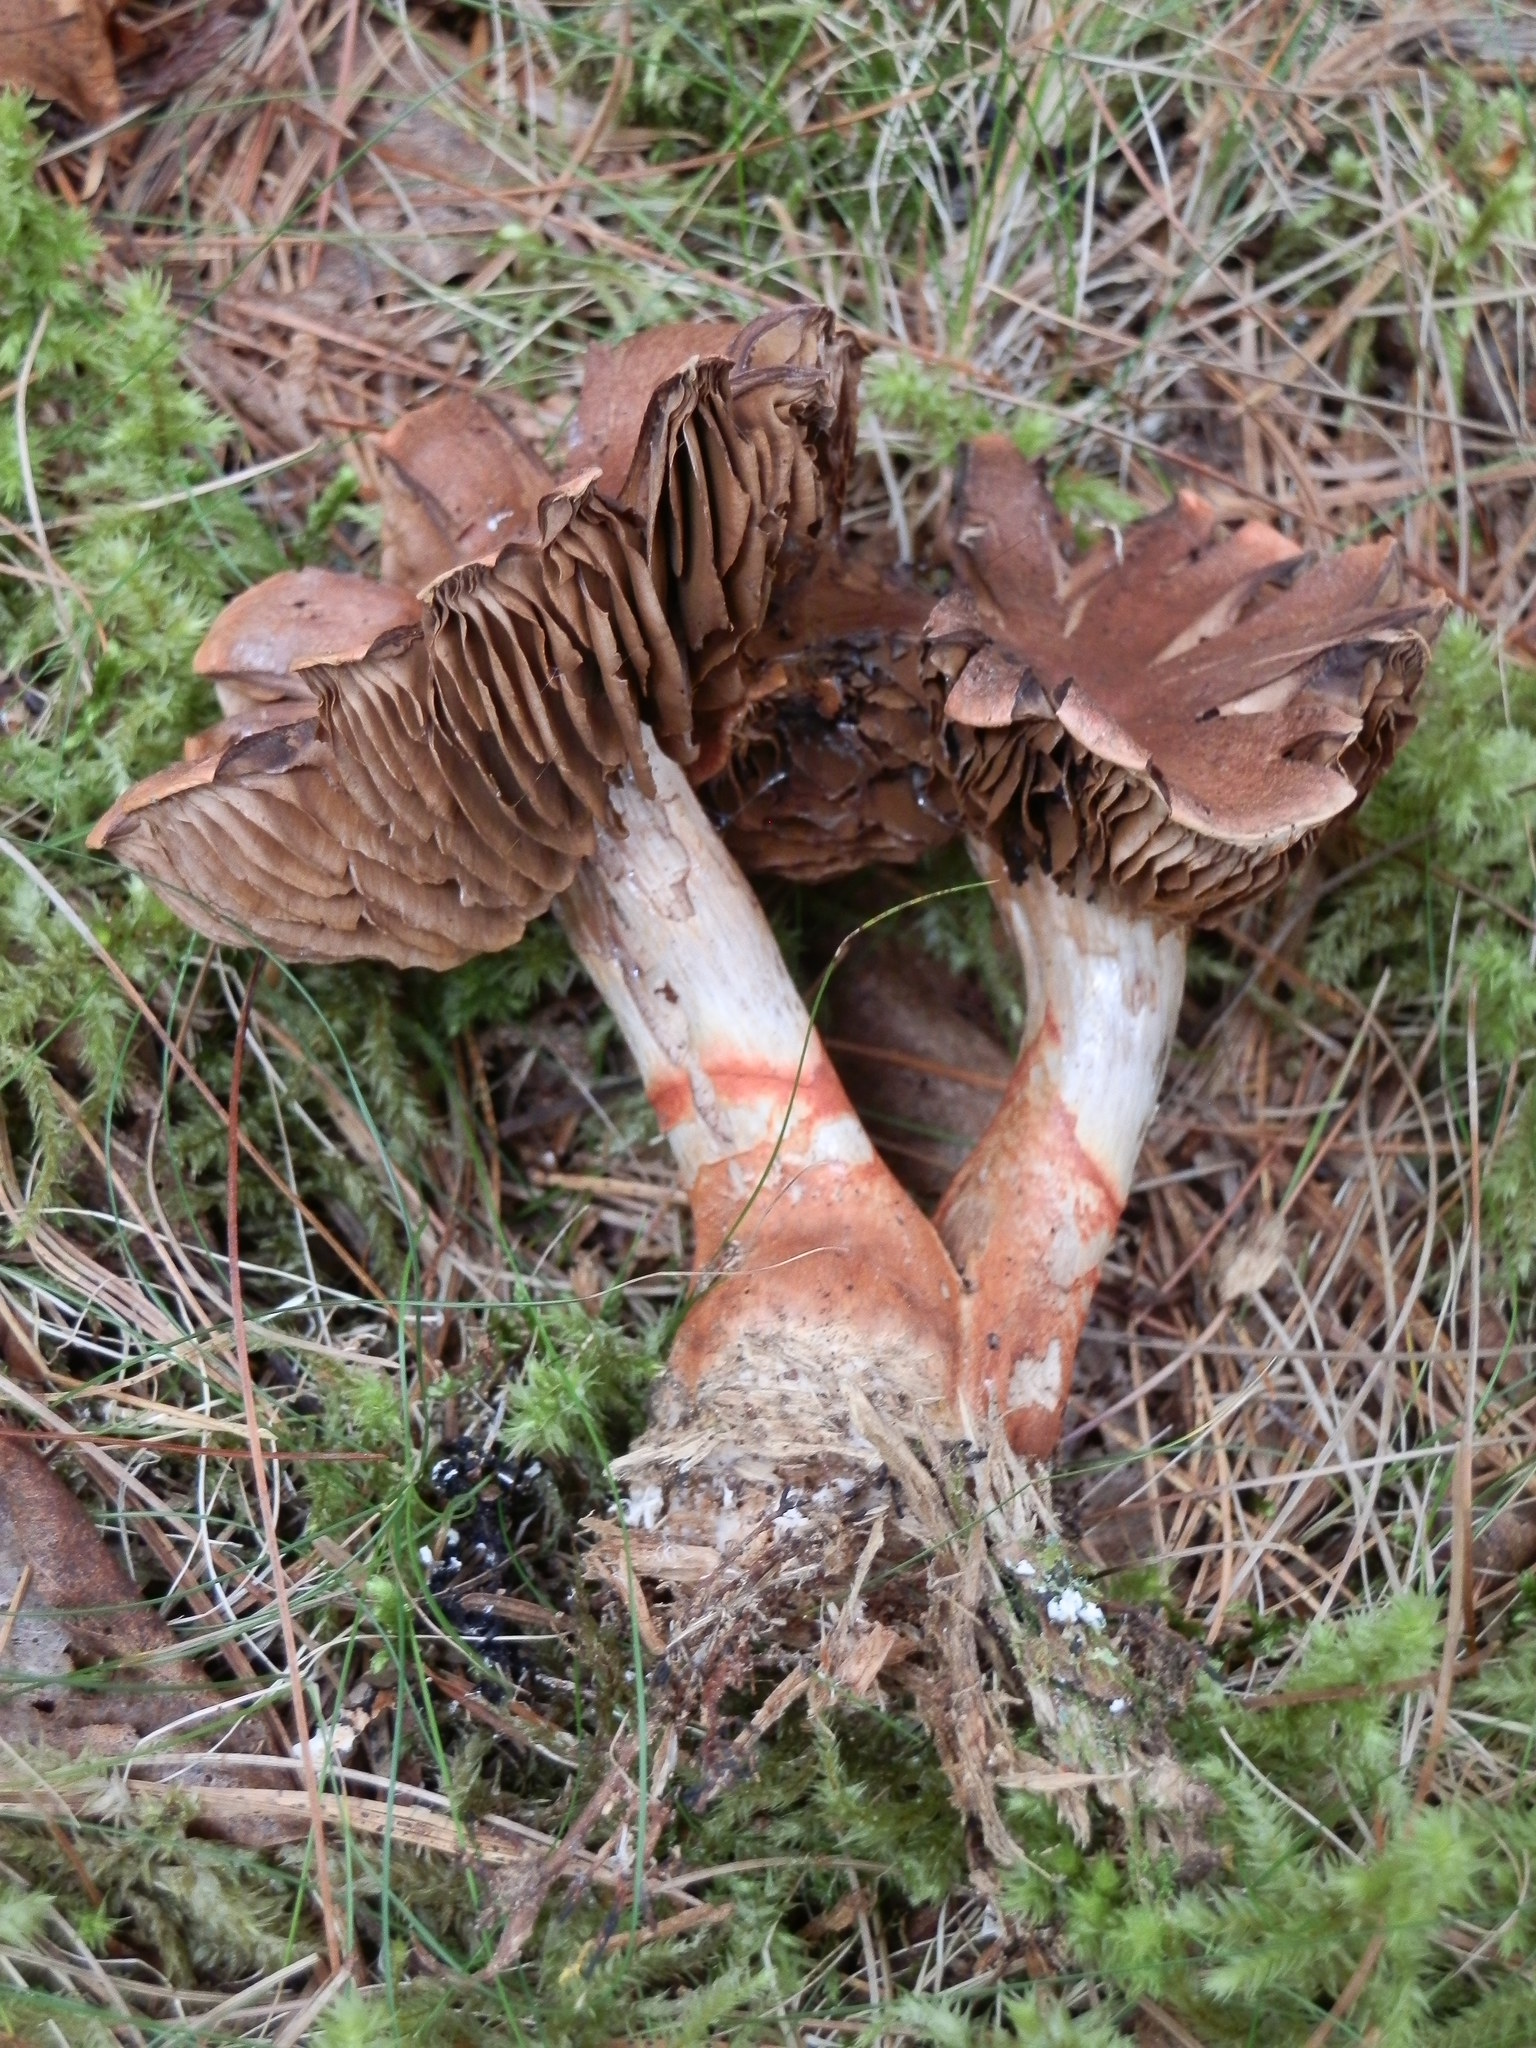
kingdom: Fungi
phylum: Basidiomycota
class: Agaricomycetes
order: Agaricales
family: Cortinariaceae
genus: Cortinarius
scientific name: Cortinarius armillatus
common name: Red banded webcap
